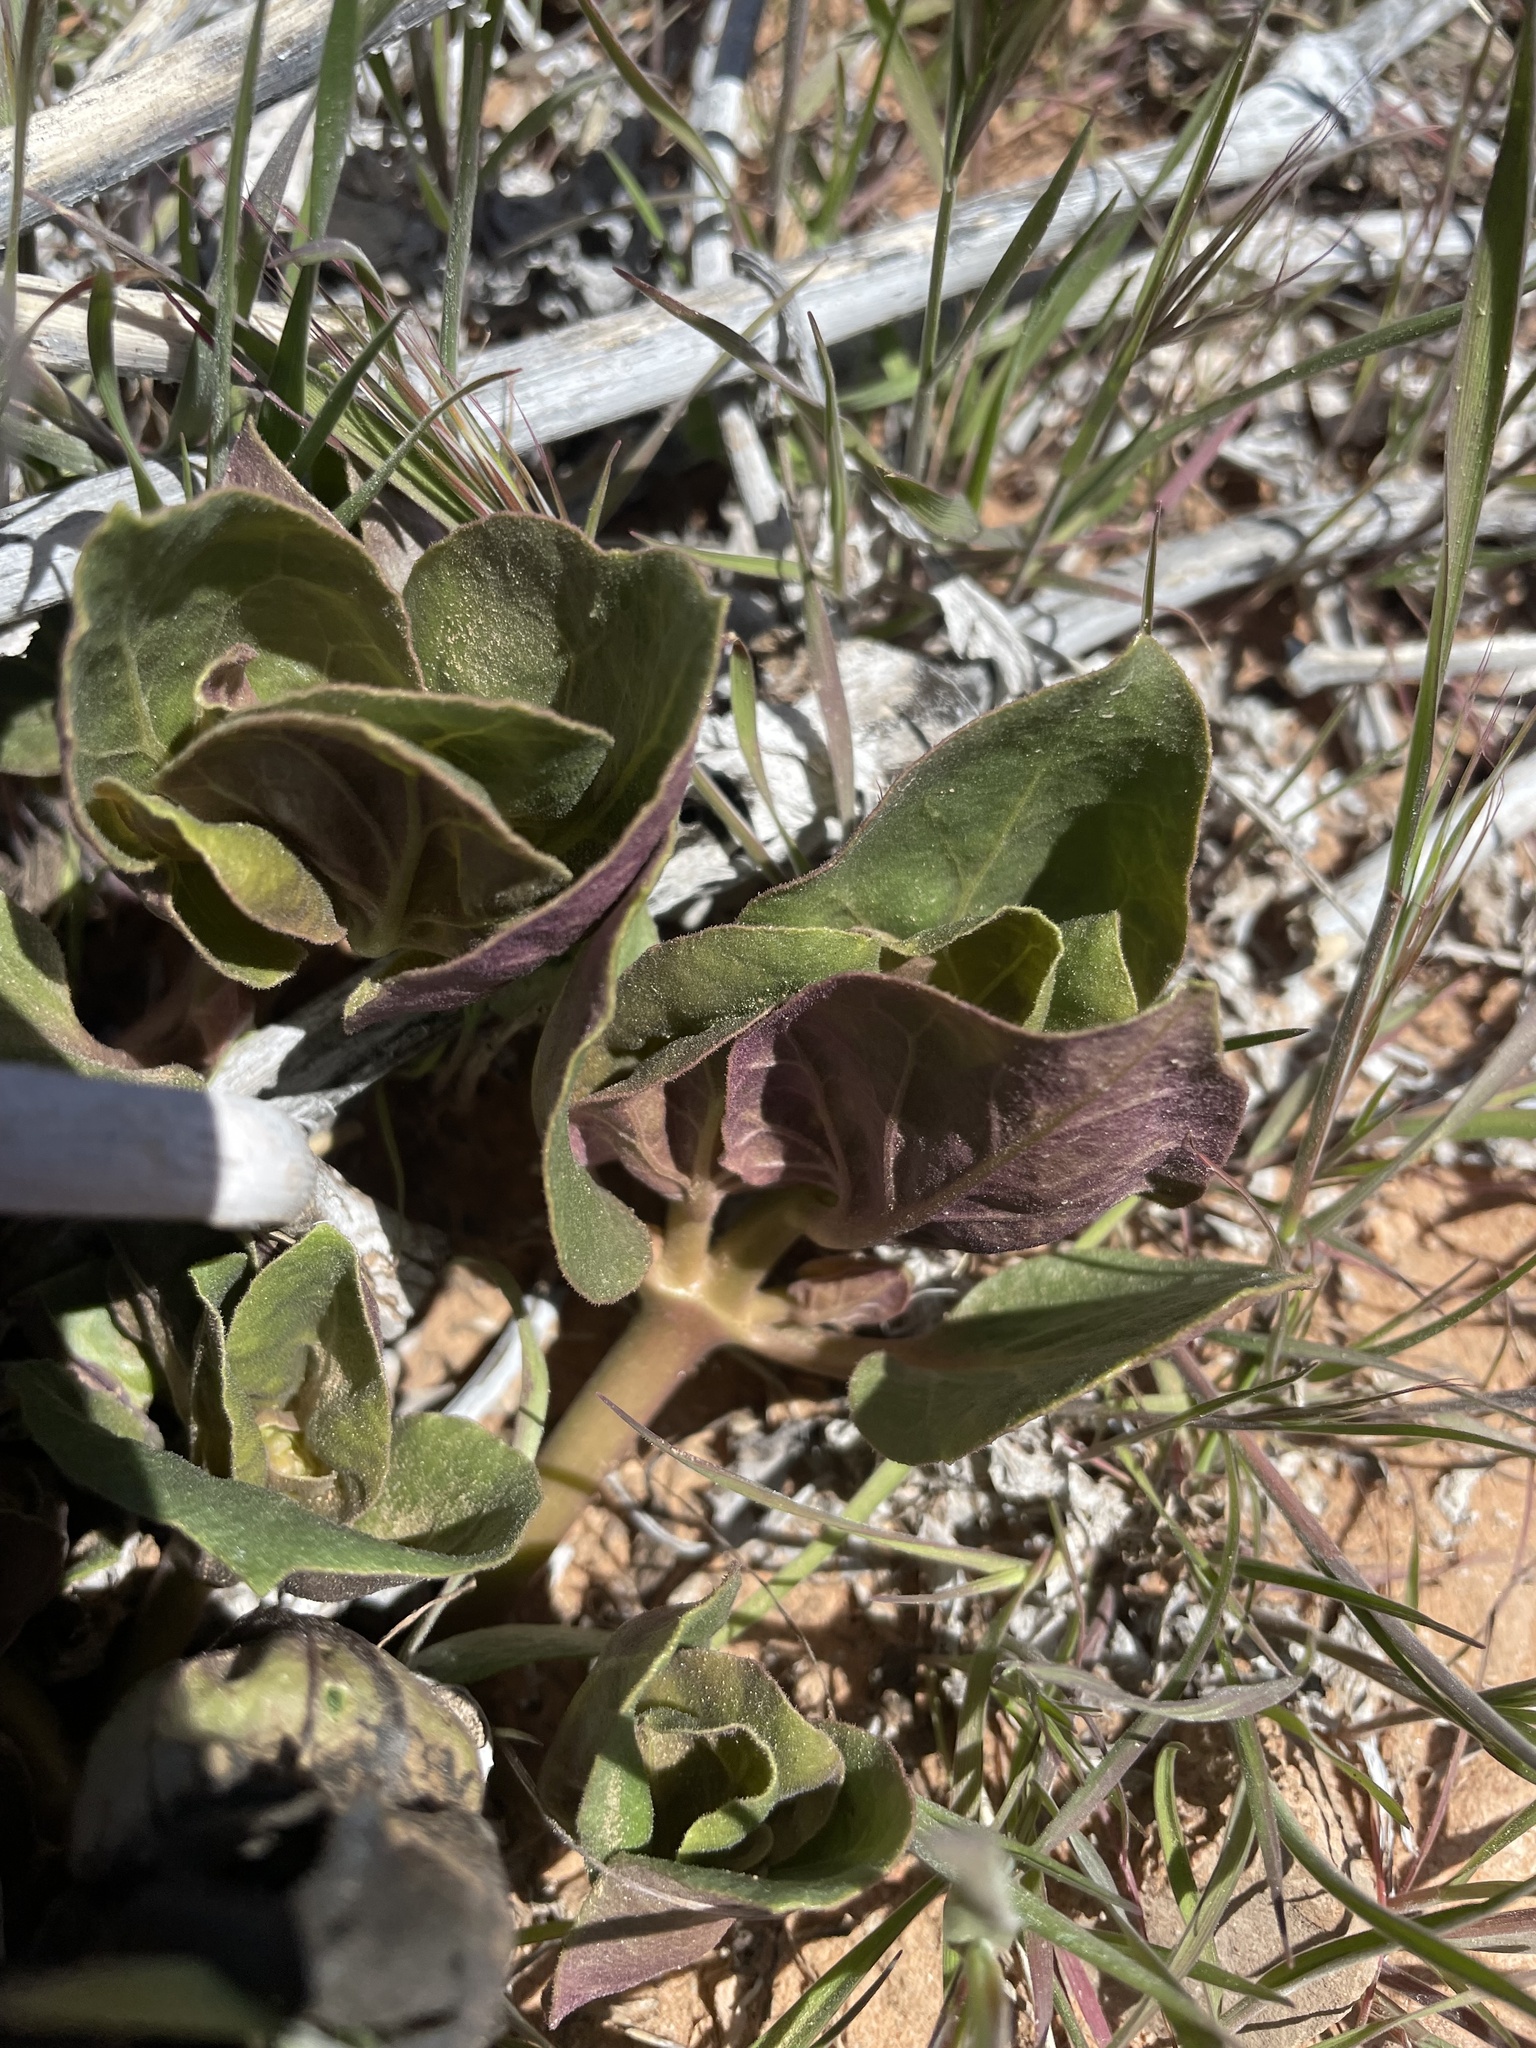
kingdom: Plantae
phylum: Tracheophyta
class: Magnoliopsida
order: Caryophyllales
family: Nyctaginaceae
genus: Mirabilis
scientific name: Mirabilis multiflora
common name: Froebel's four-o'clock
